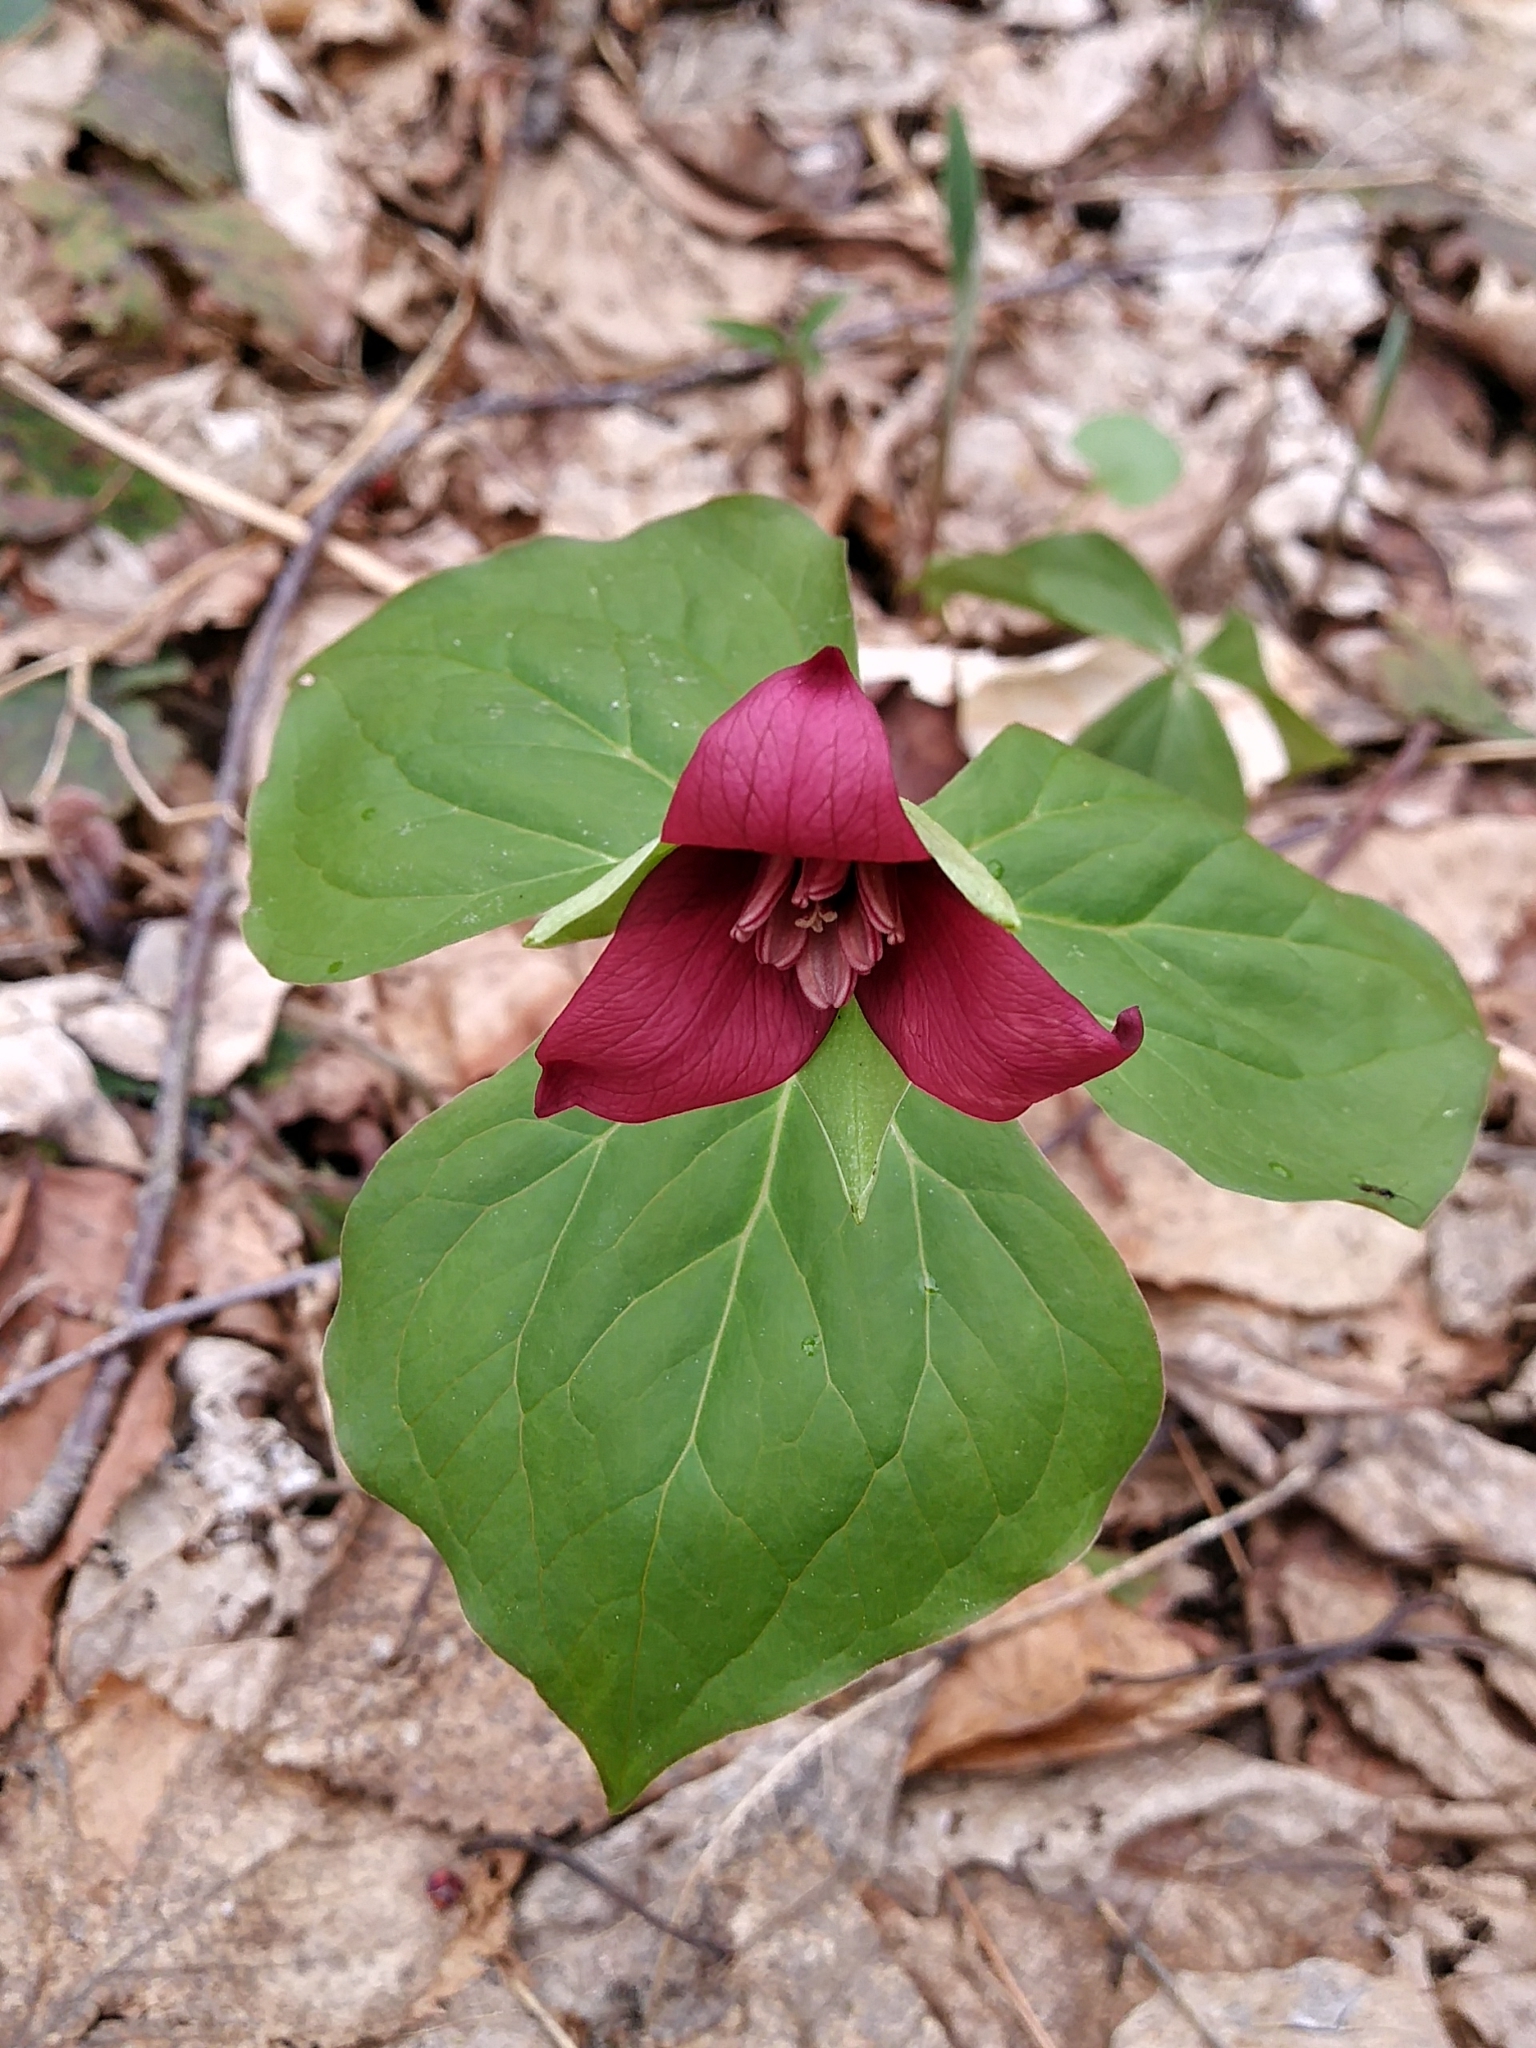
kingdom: Plantae
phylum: Tracheophyta
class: Liliopsida
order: Liliales
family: Melanthiaceae
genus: Trillium
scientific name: Trillium erectum
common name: Purple trillium
